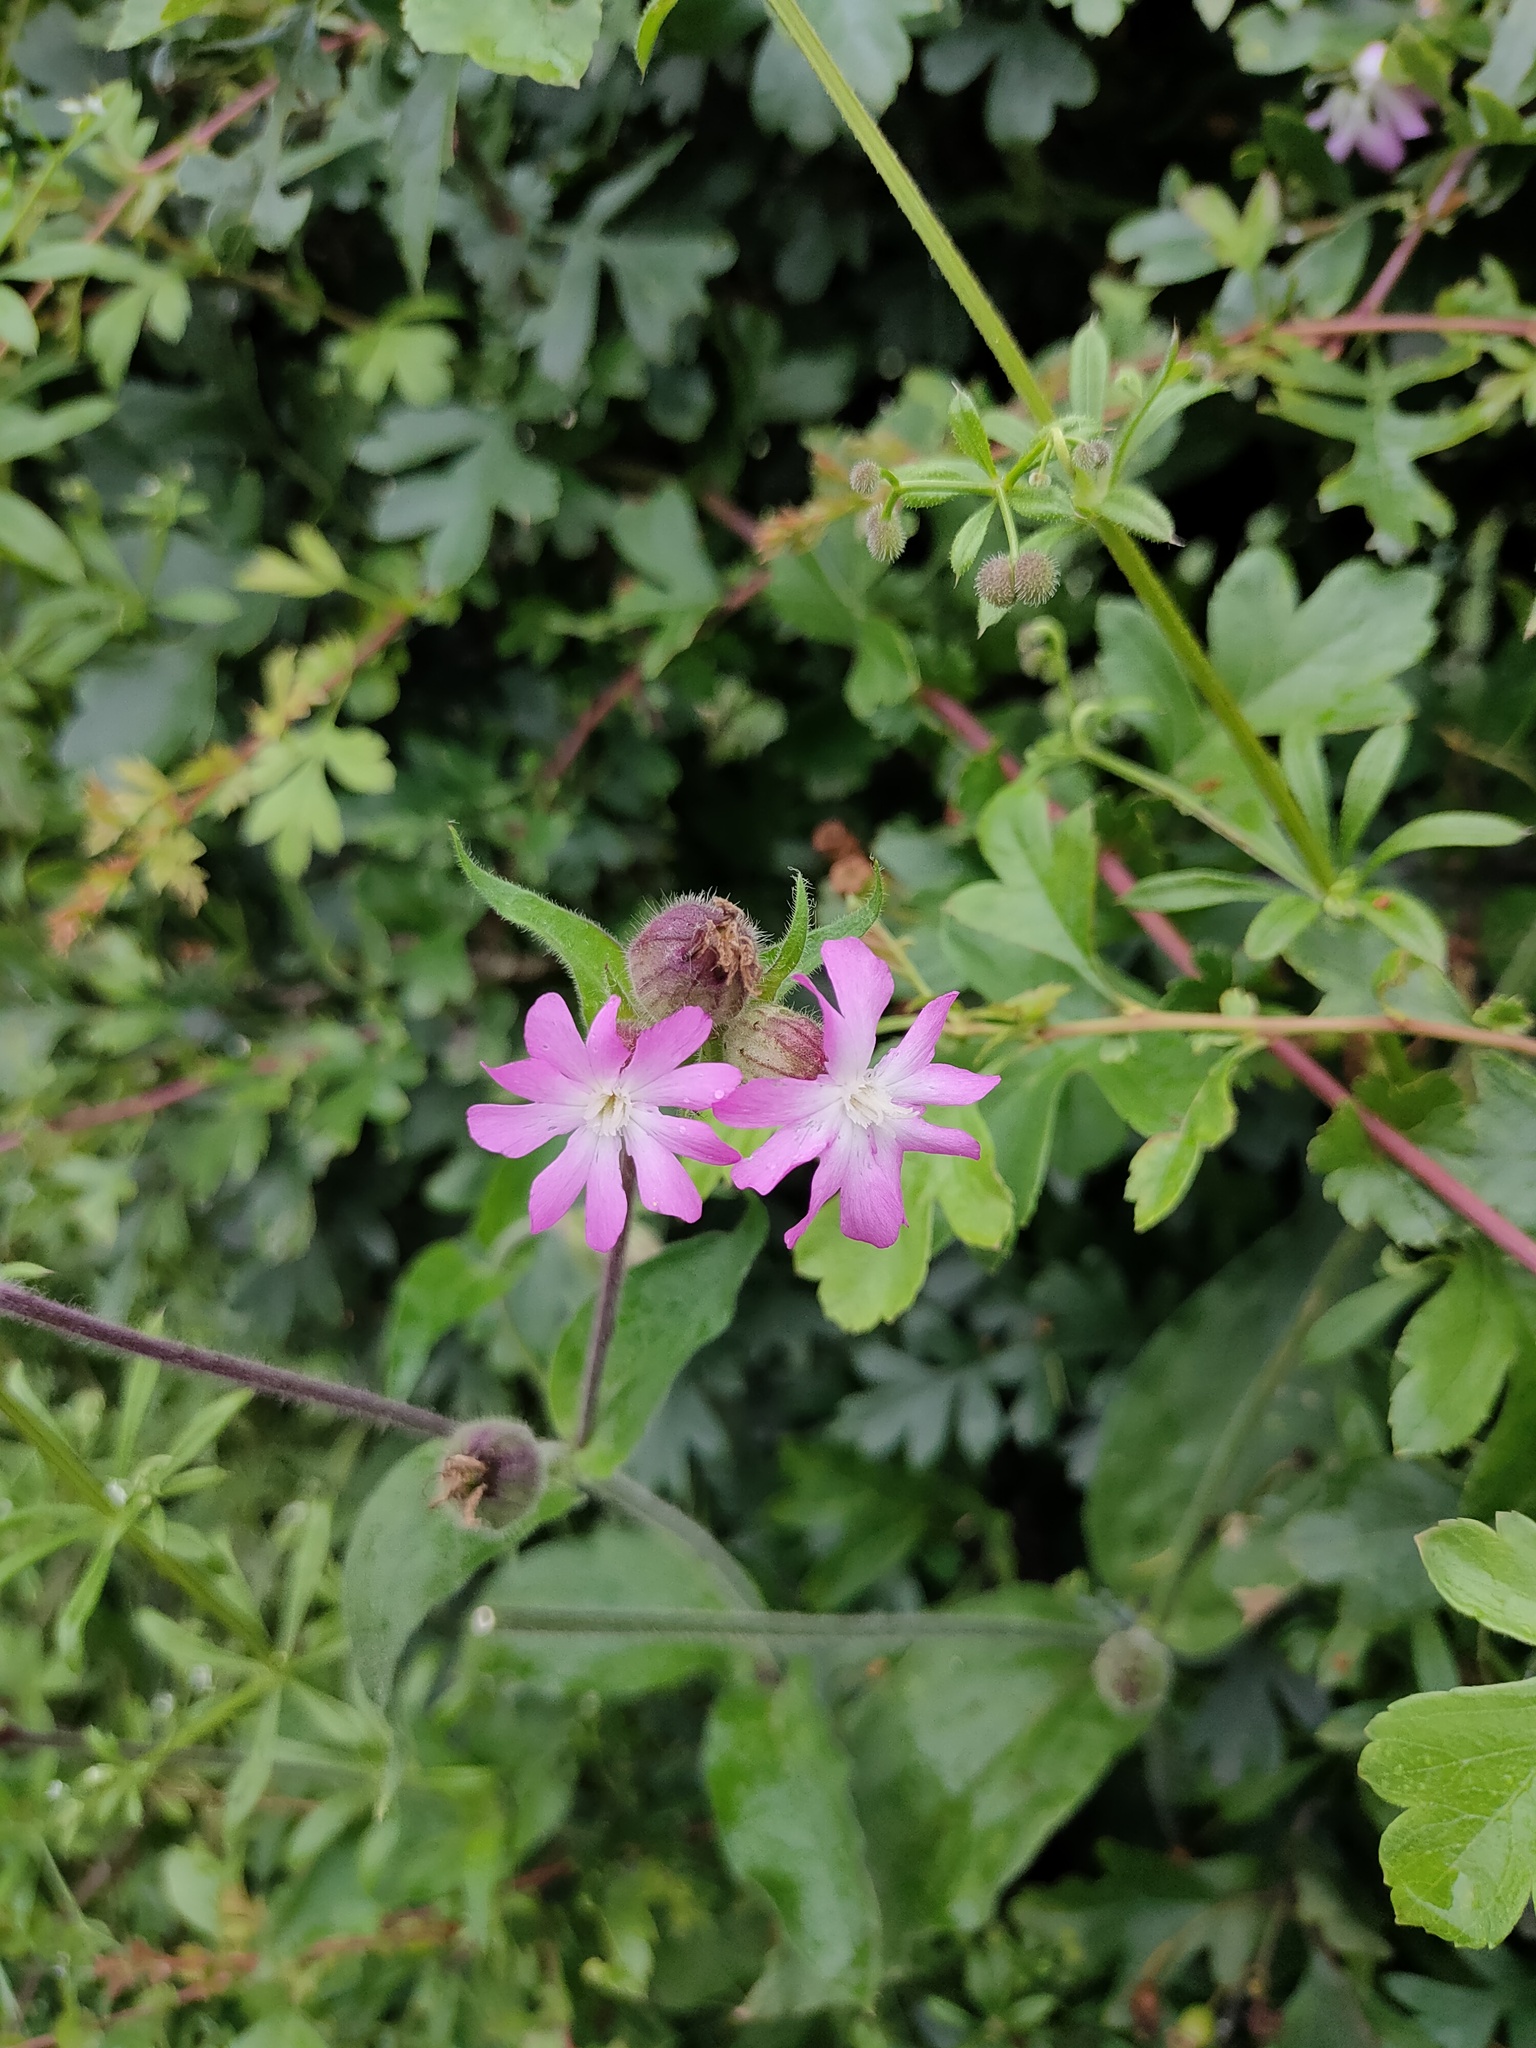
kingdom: Plantae
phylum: Tracheophyta
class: Magnoliopsida
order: Caryophyllales
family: Caryophyllaceae
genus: Silene
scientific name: Silene dioica
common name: Red campion
